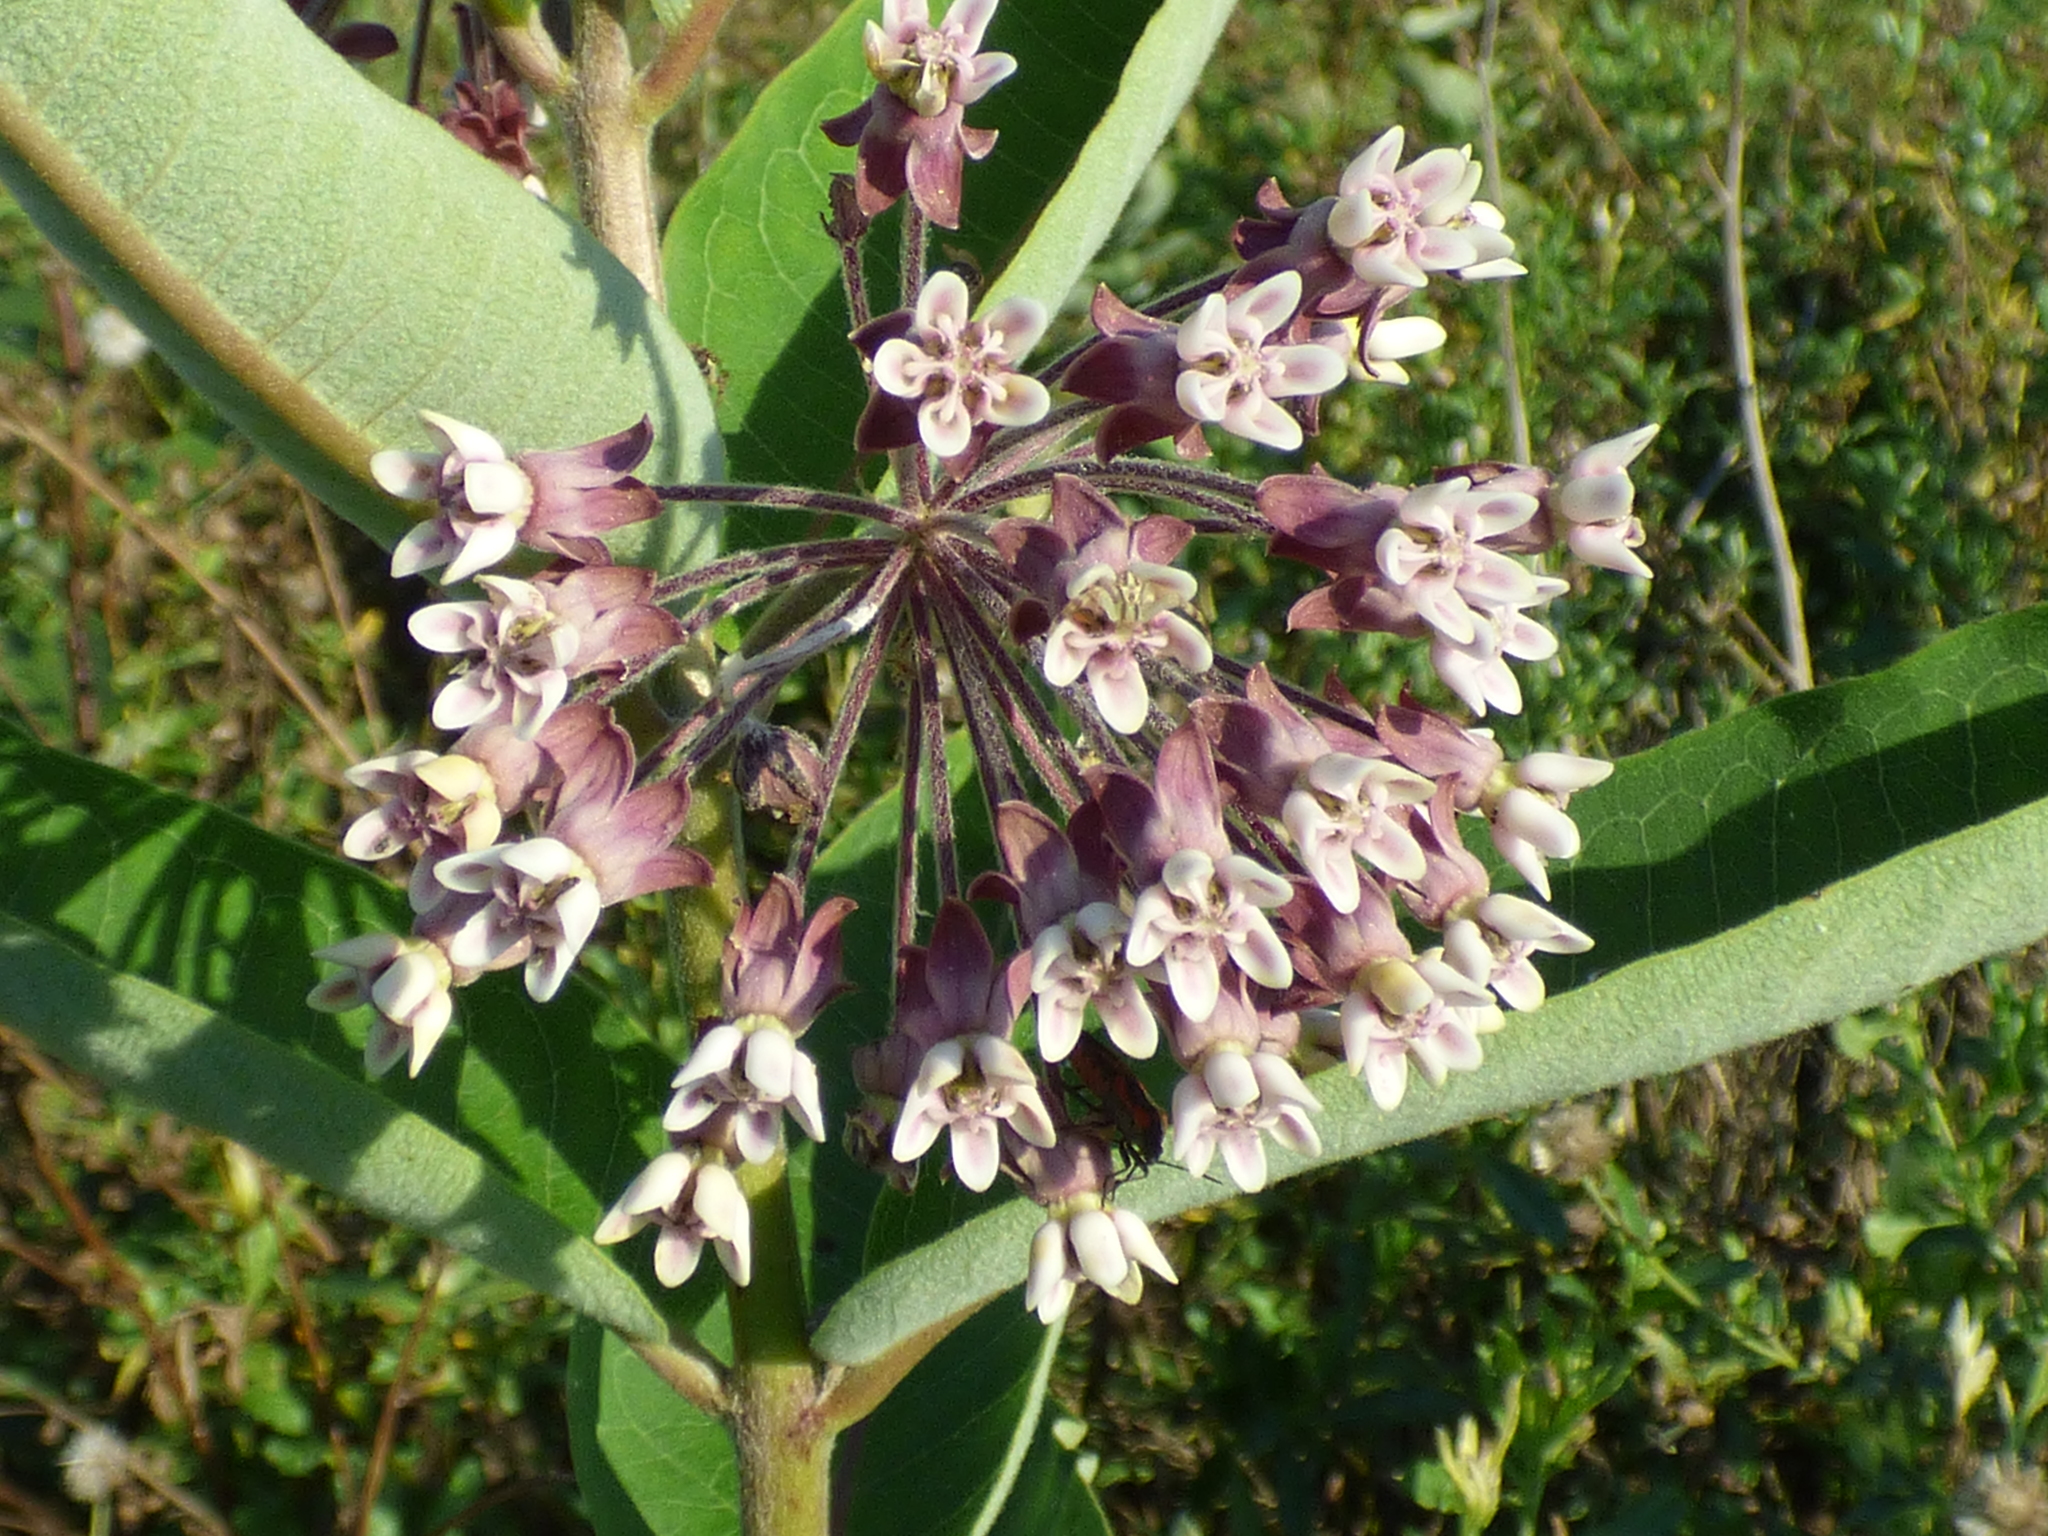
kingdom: Plantae
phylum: Tracheophyta
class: Magnoliopsida
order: Gentianales
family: Apocynaceae
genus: Asclepias
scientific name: Asclepias syriaca
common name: Common milkweed
